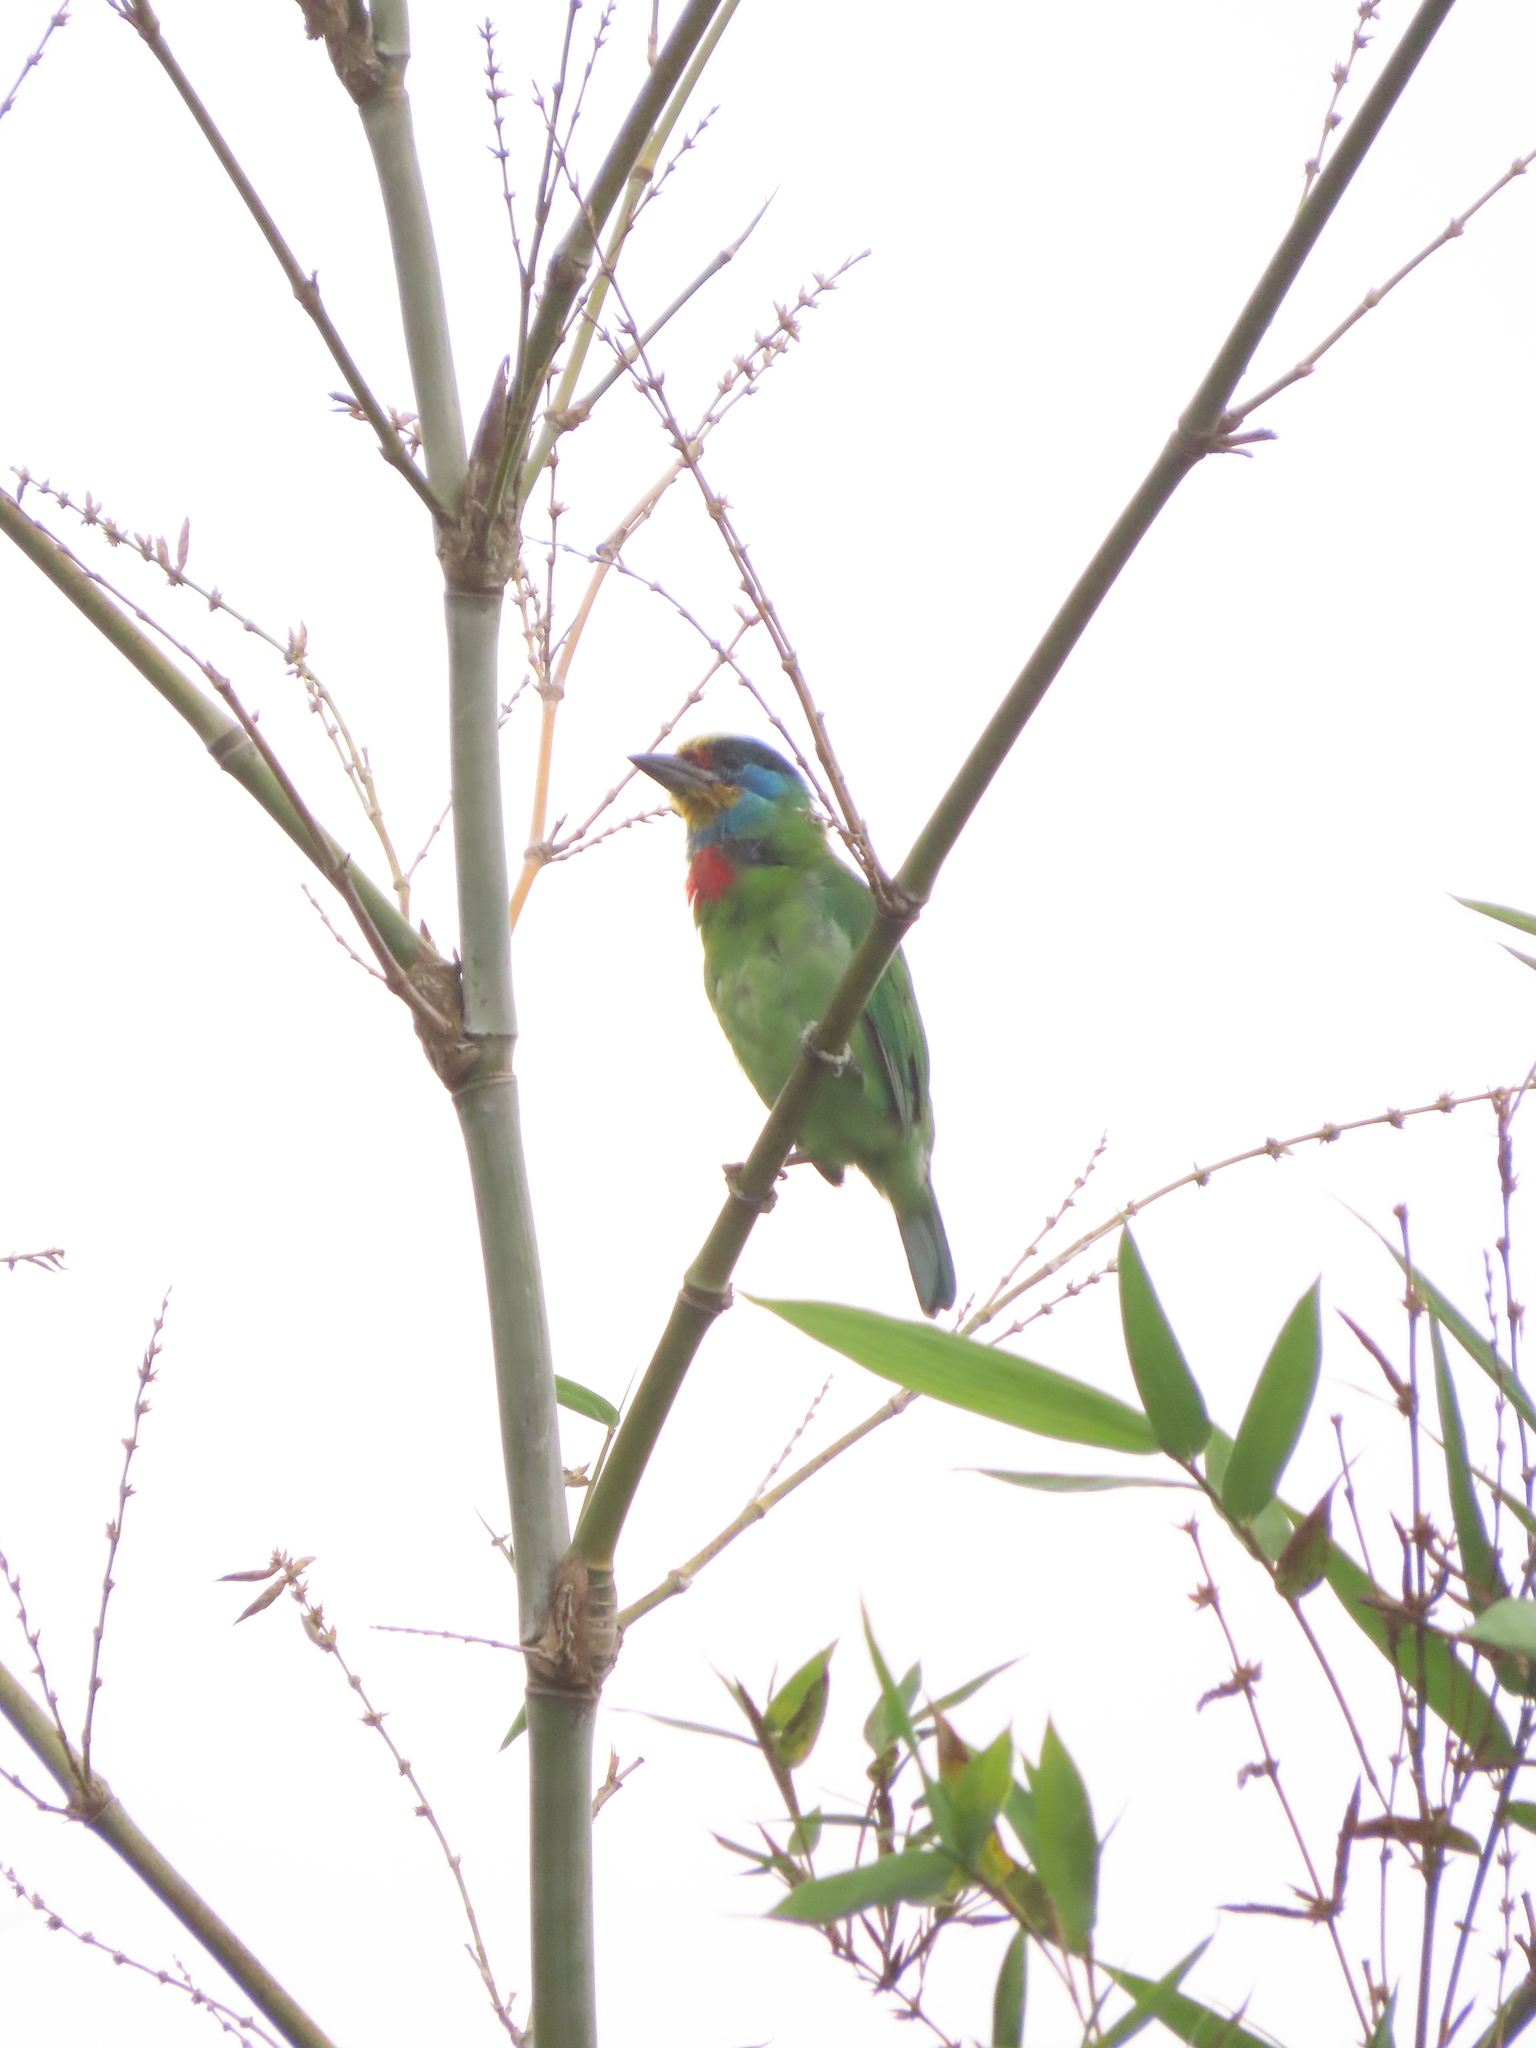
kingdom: Animalia
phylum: Chordata
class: Aves
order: Piciformes
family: Megalaimidae
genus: Psilopogon
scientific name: Psilopogon nuchalis
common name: Taiwan barbet
